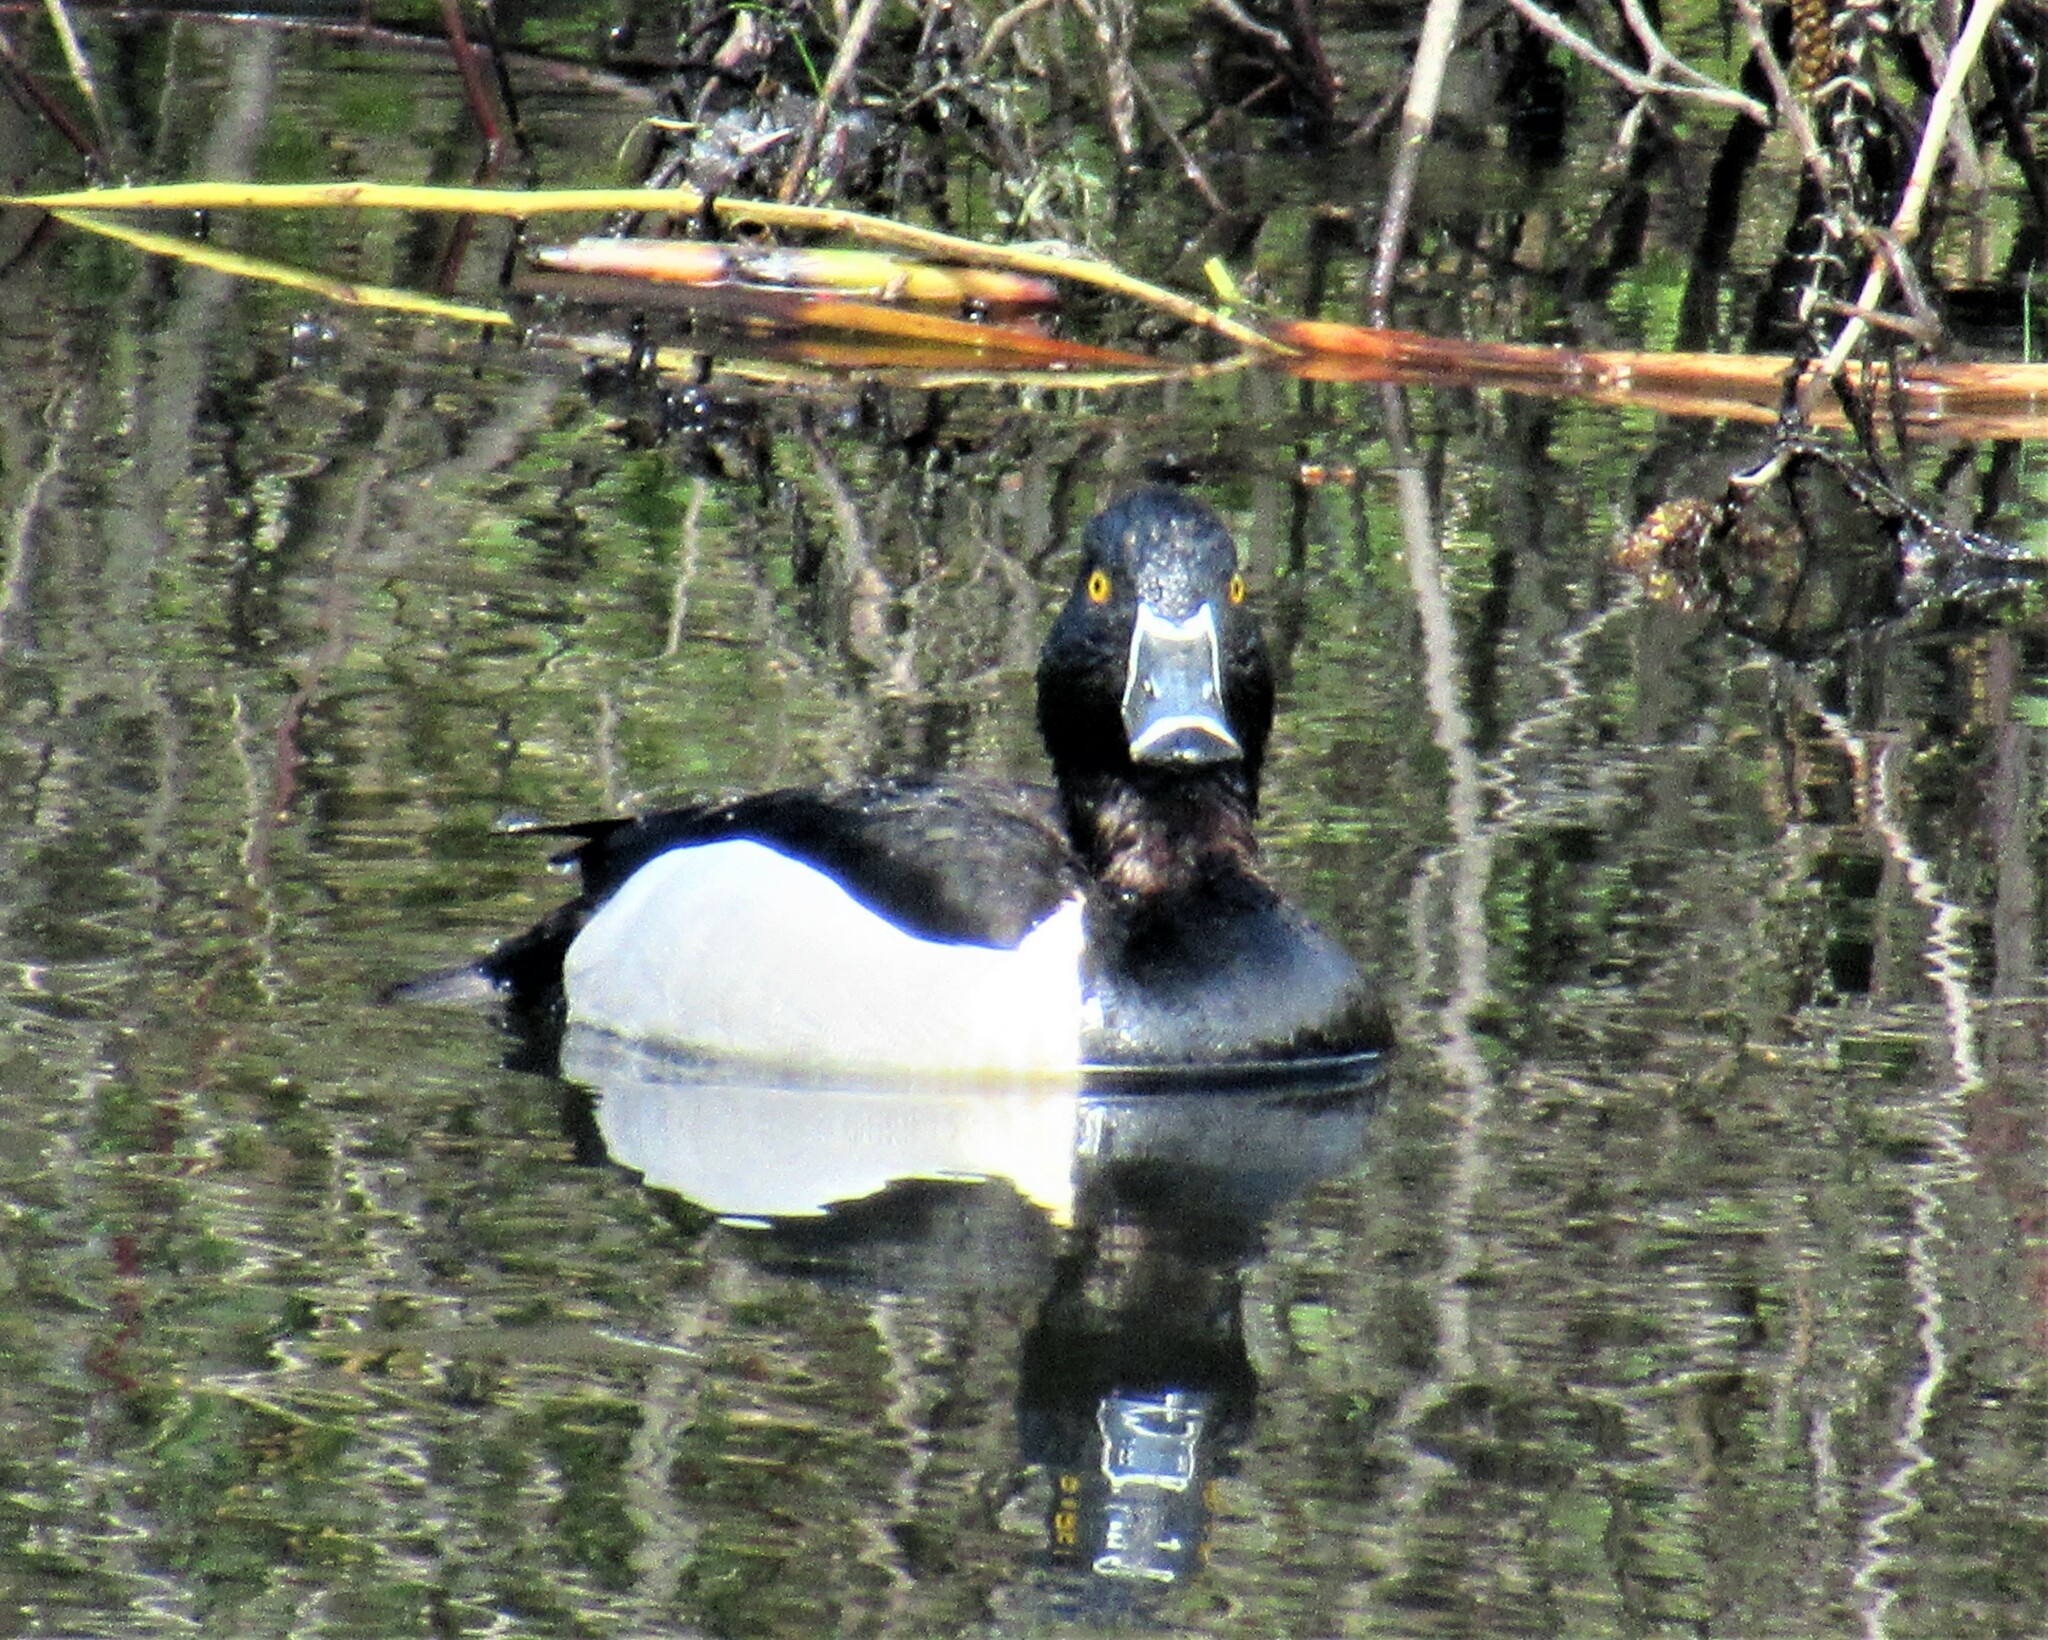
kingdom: Animalia
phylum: Chordata
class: Aves
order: Anseriformes
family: Anatidae
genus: Aythya
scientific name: Aythya collaris
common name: Ring-necked duck
